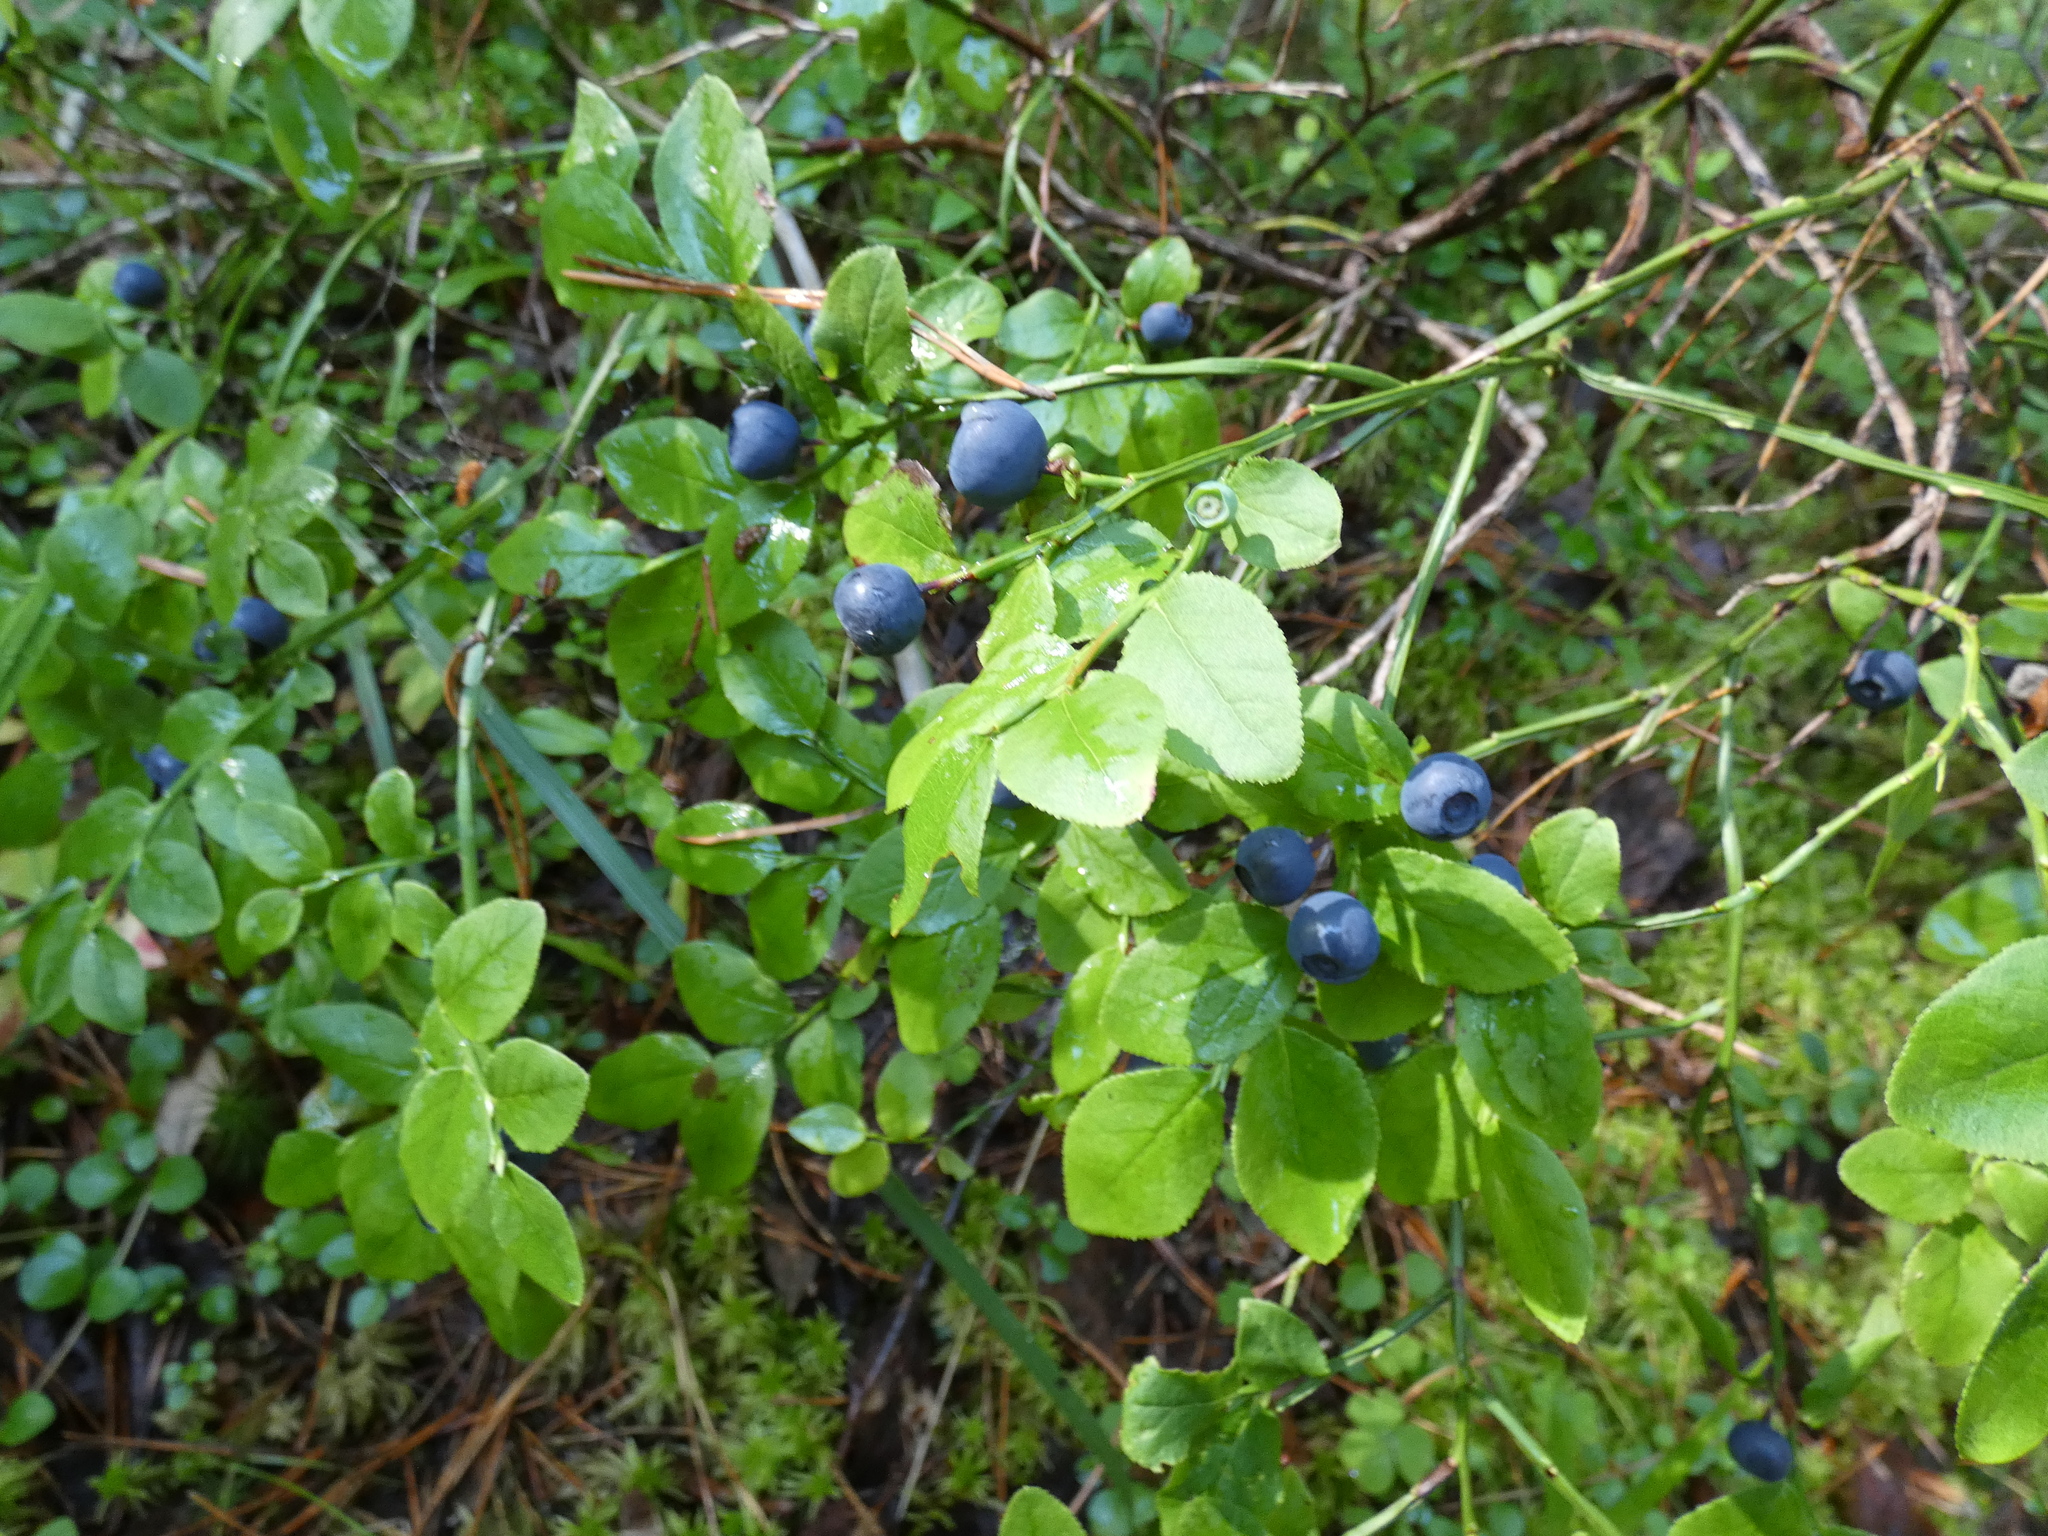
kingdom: Plantae
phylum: Tracheophyta
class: Magnoliopsida
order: Ericales
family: Ericaceae
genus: Vaccinium
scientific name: Vaccinium myrtillus
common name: Bilberry
